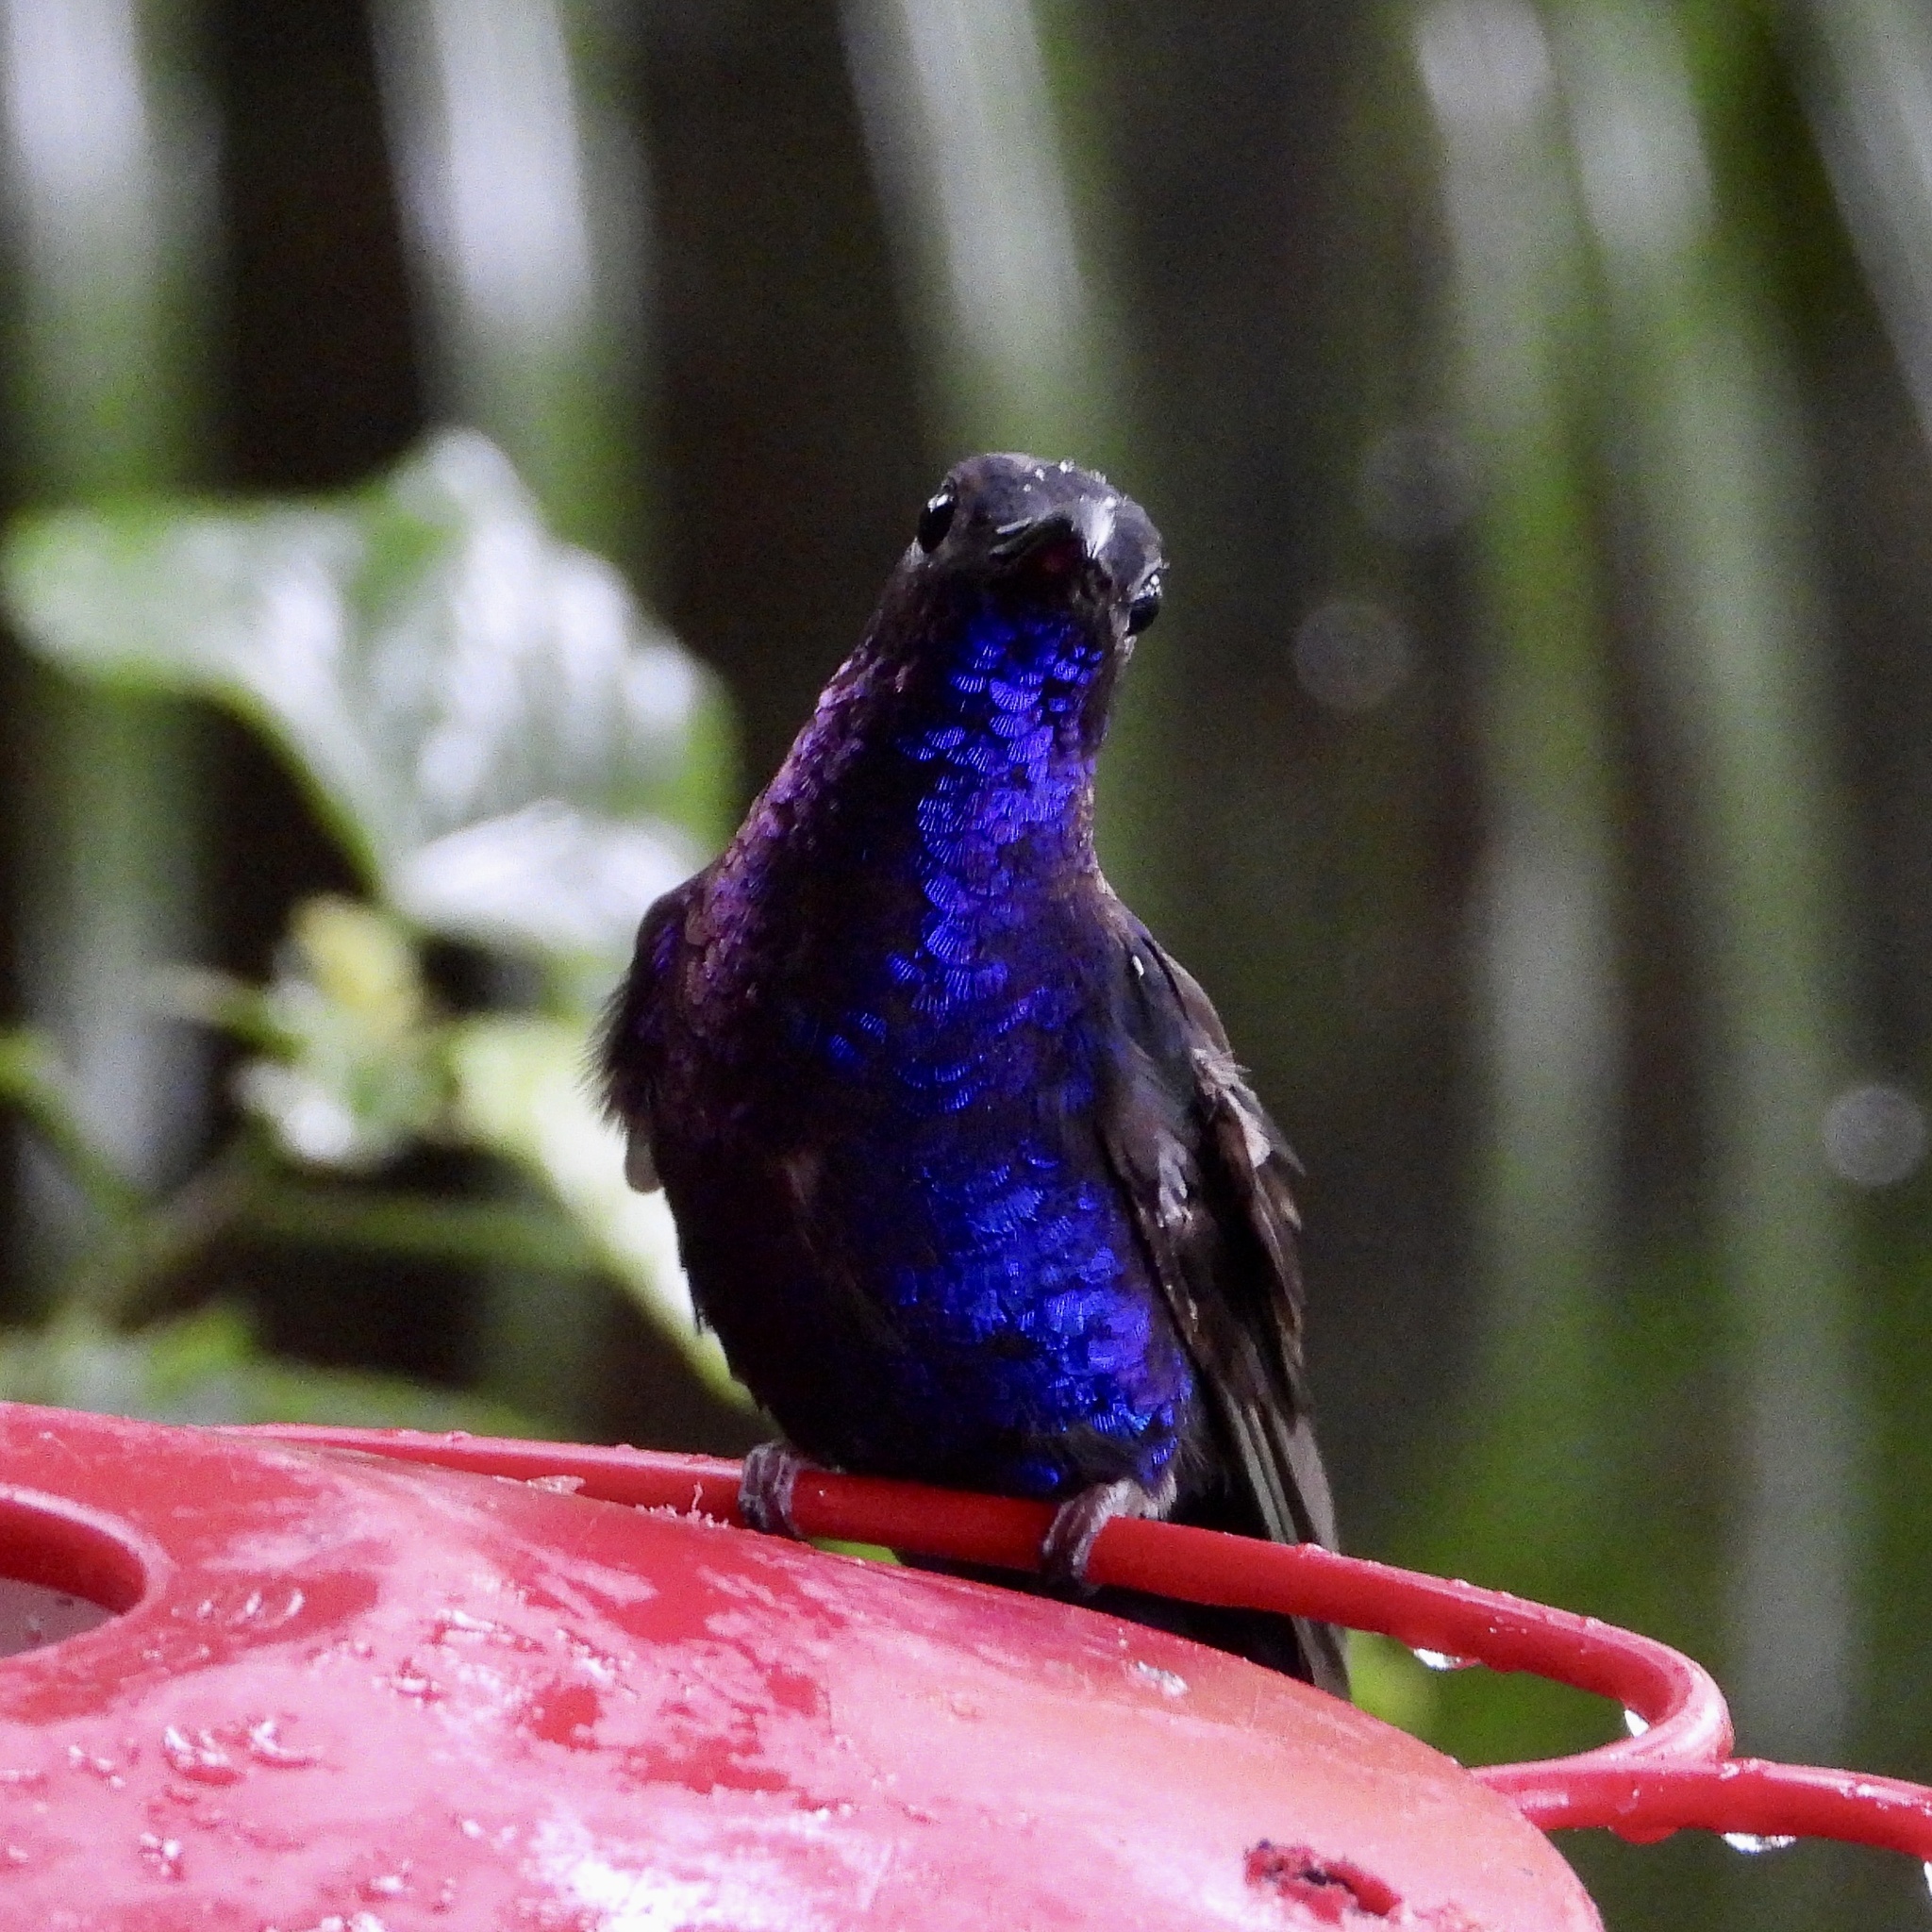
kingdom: Animalia
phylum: Chordata
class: Aves
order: Apodiformes
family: Trochilidae
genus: Campylopterus
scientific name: Campylopterus hemileucurus
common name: Violet sabrewing
